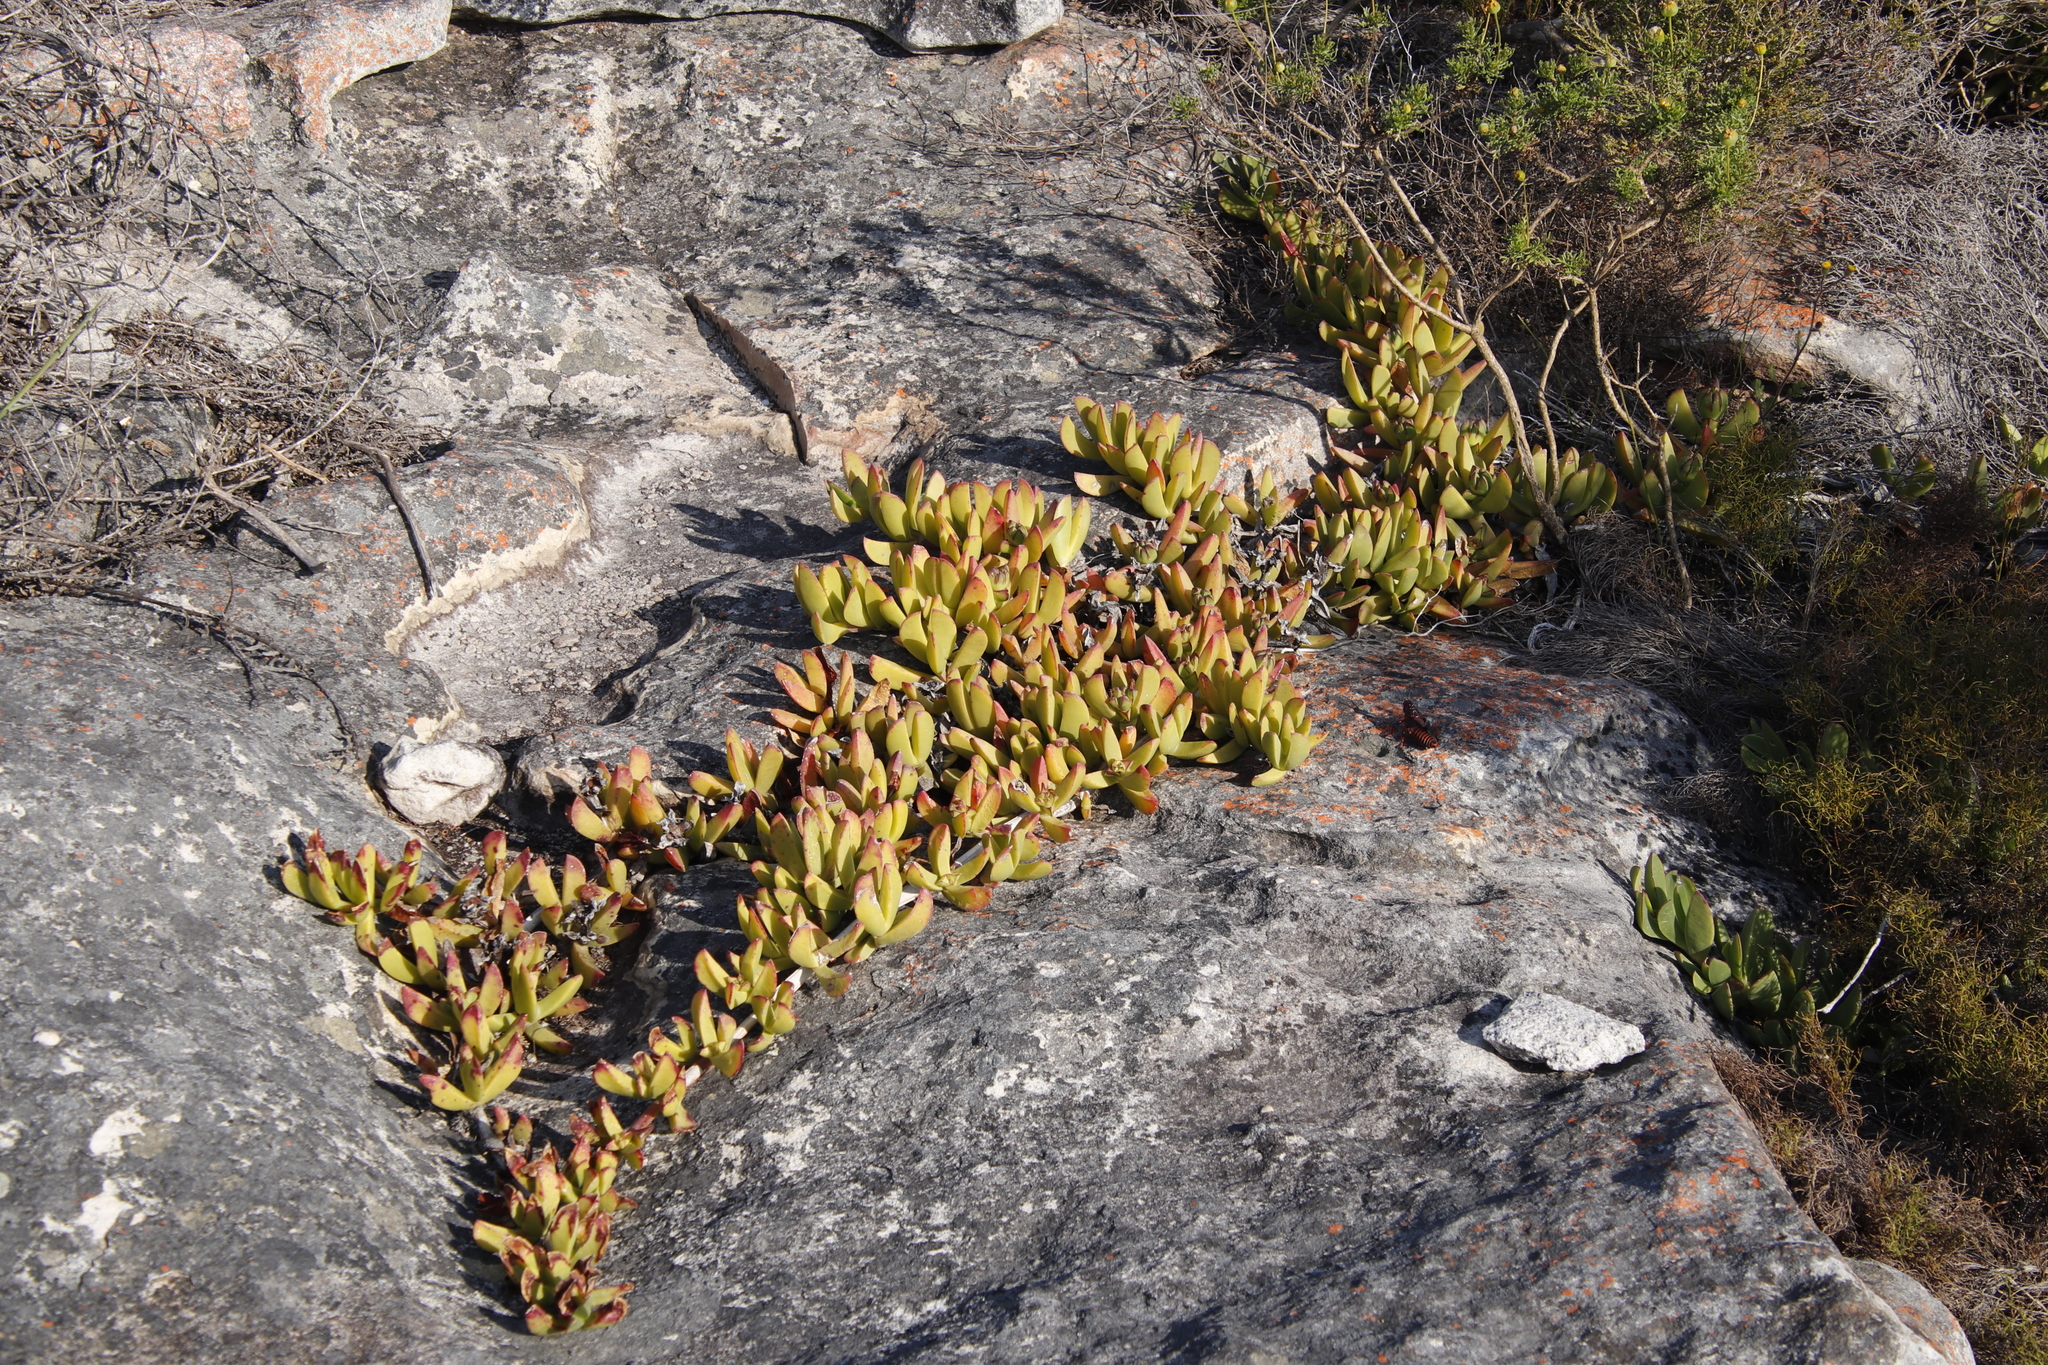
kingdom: Plantae
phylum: Tracheophyta
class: Magnoliopsida
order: Caryophyllales
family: Aizoaceae
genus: Amphibolia
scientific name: Amphibolia laevis
